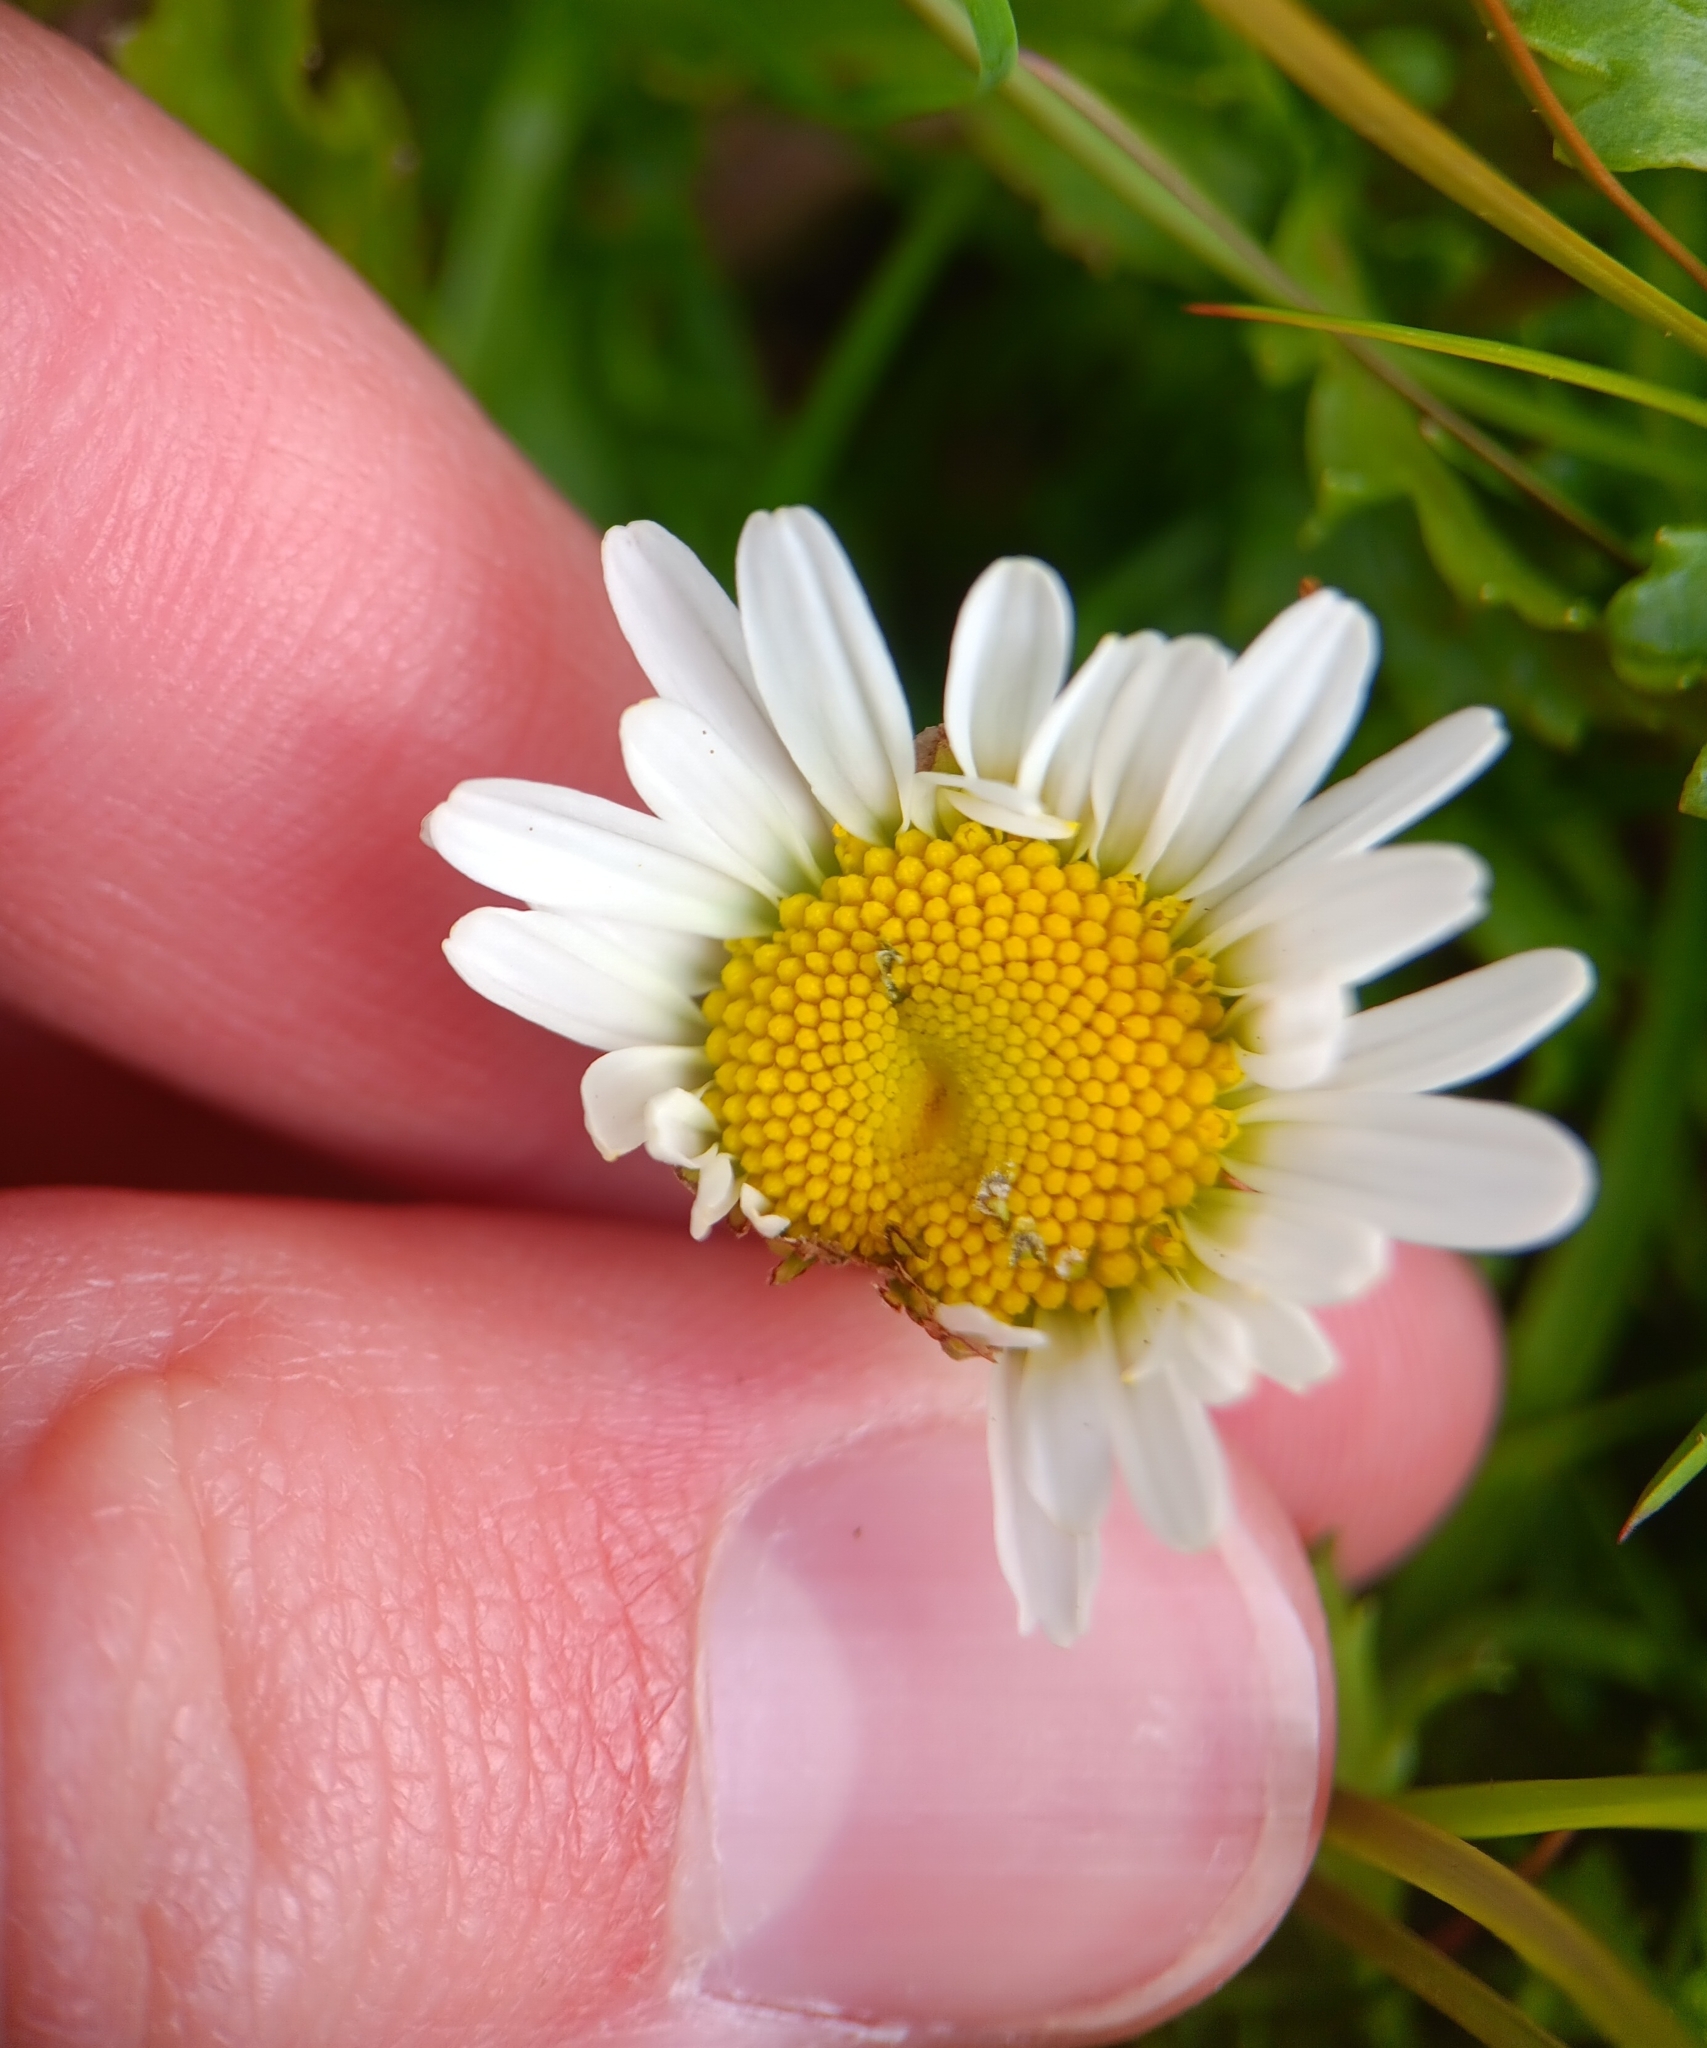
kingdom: Plantae
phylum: Tracheophyta
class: Magnoliopsida
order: Asterales
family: Asteraceae
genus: Leucanthemum
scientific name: Leucanthemum vulgare
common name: Oxeye daisy
